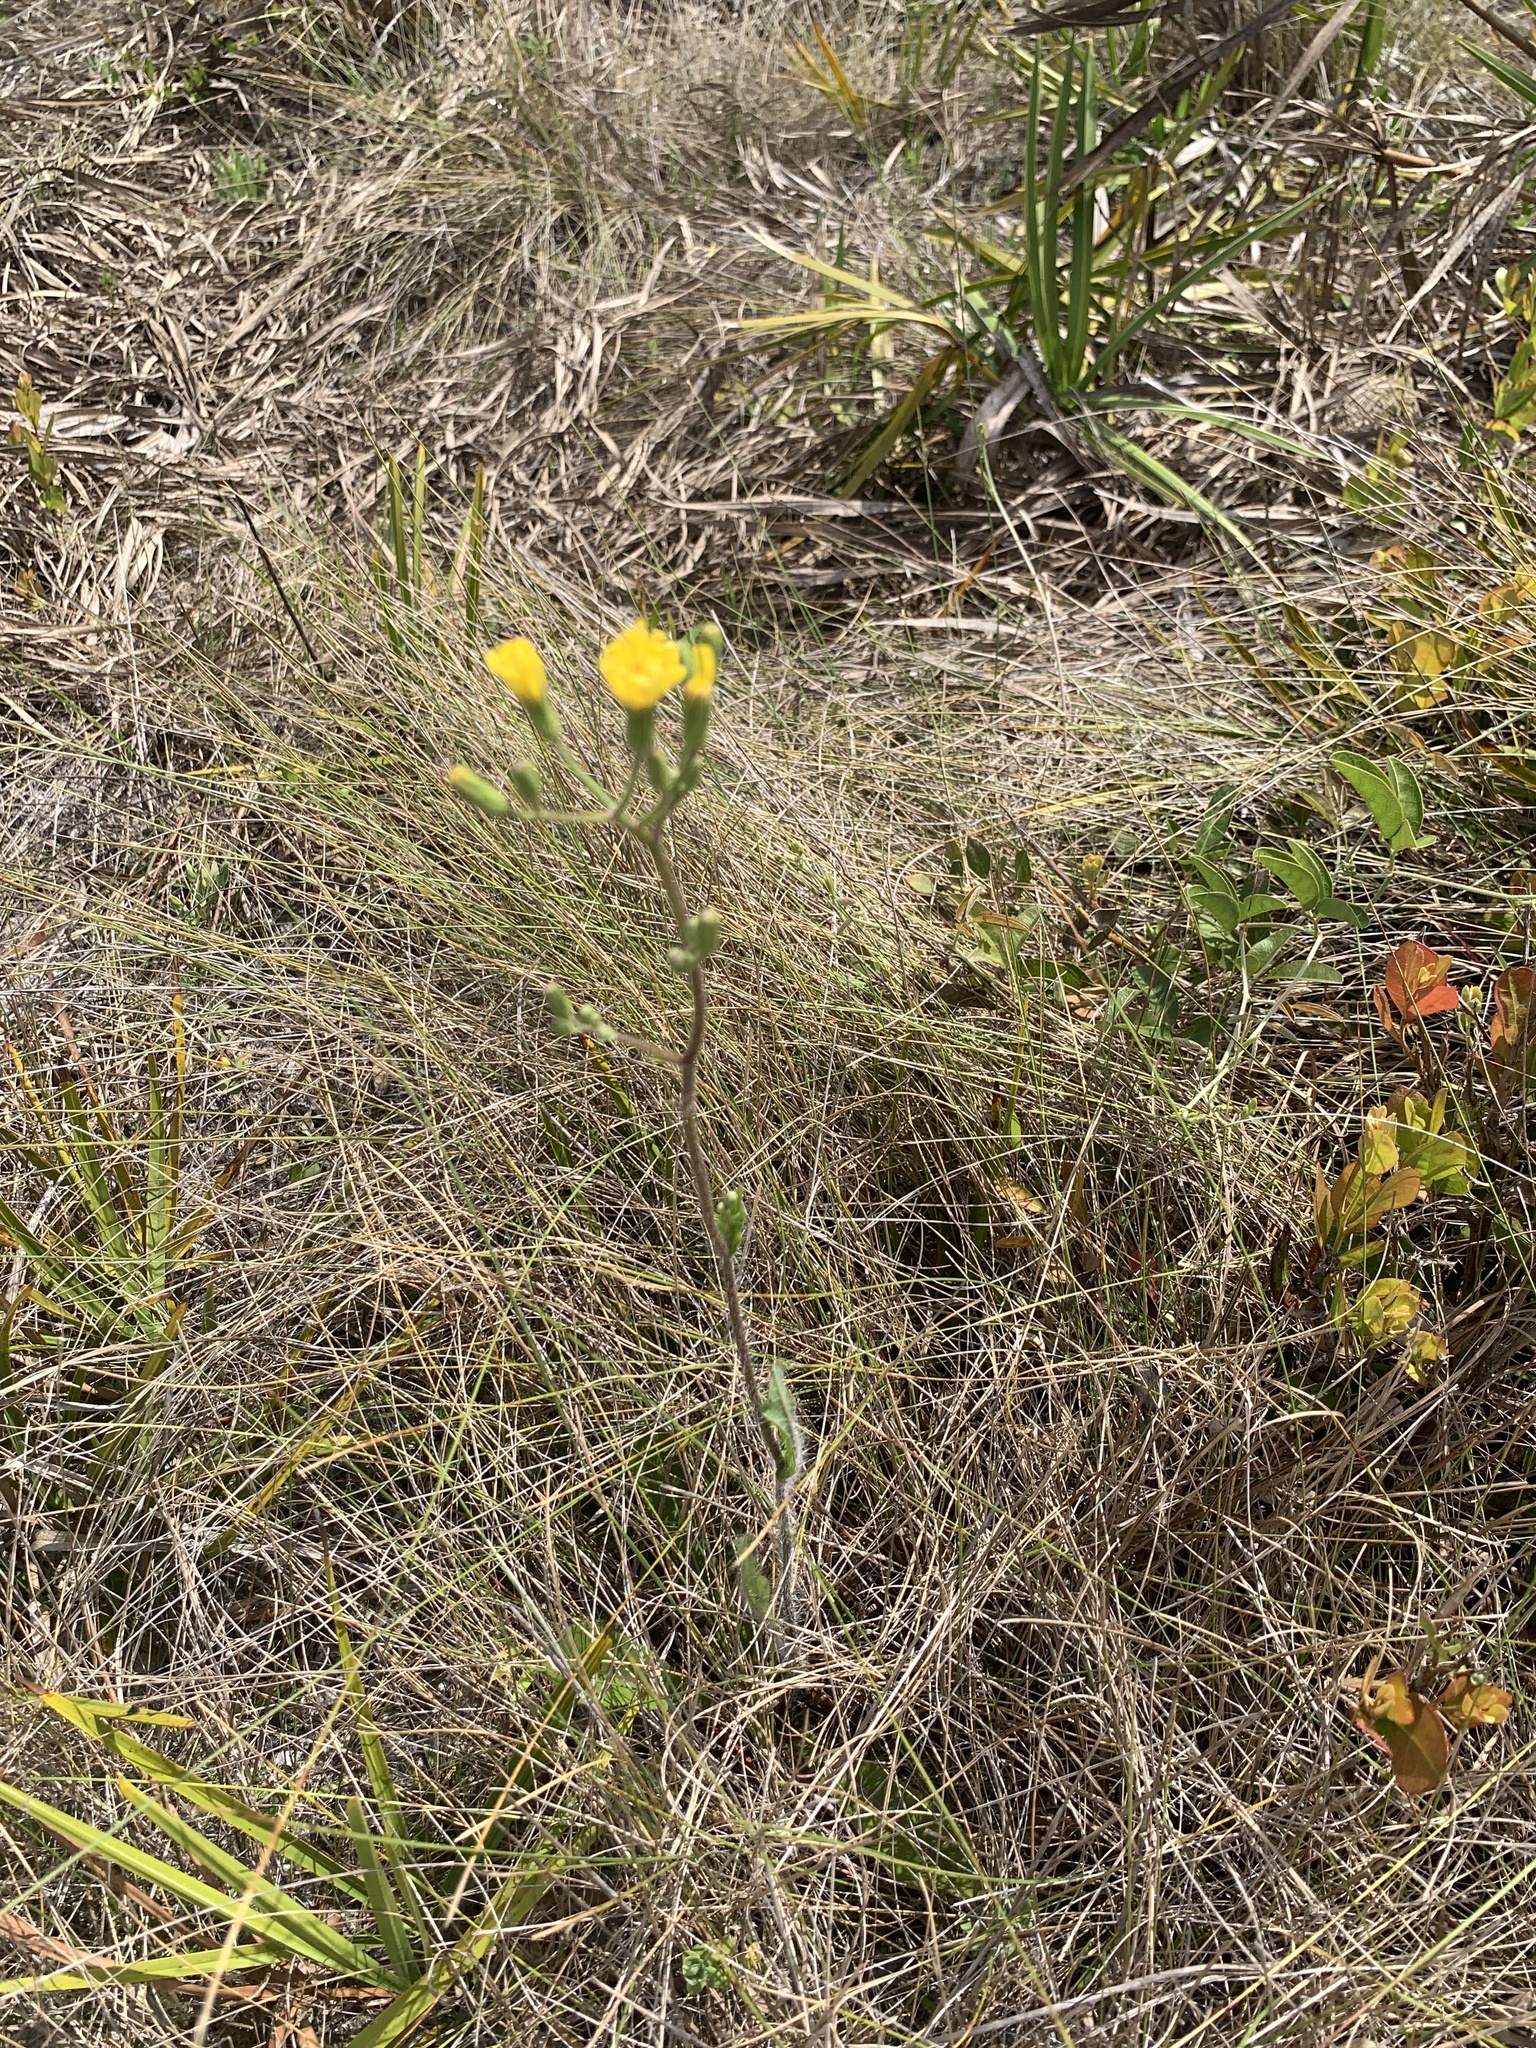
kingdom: Plantae
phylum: Tracheophyta
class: Magnoliopsida
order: Asterales
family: Asteraceae
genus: Hieracium
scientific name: Hieracium gronovii
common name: Beaked hawkweed
